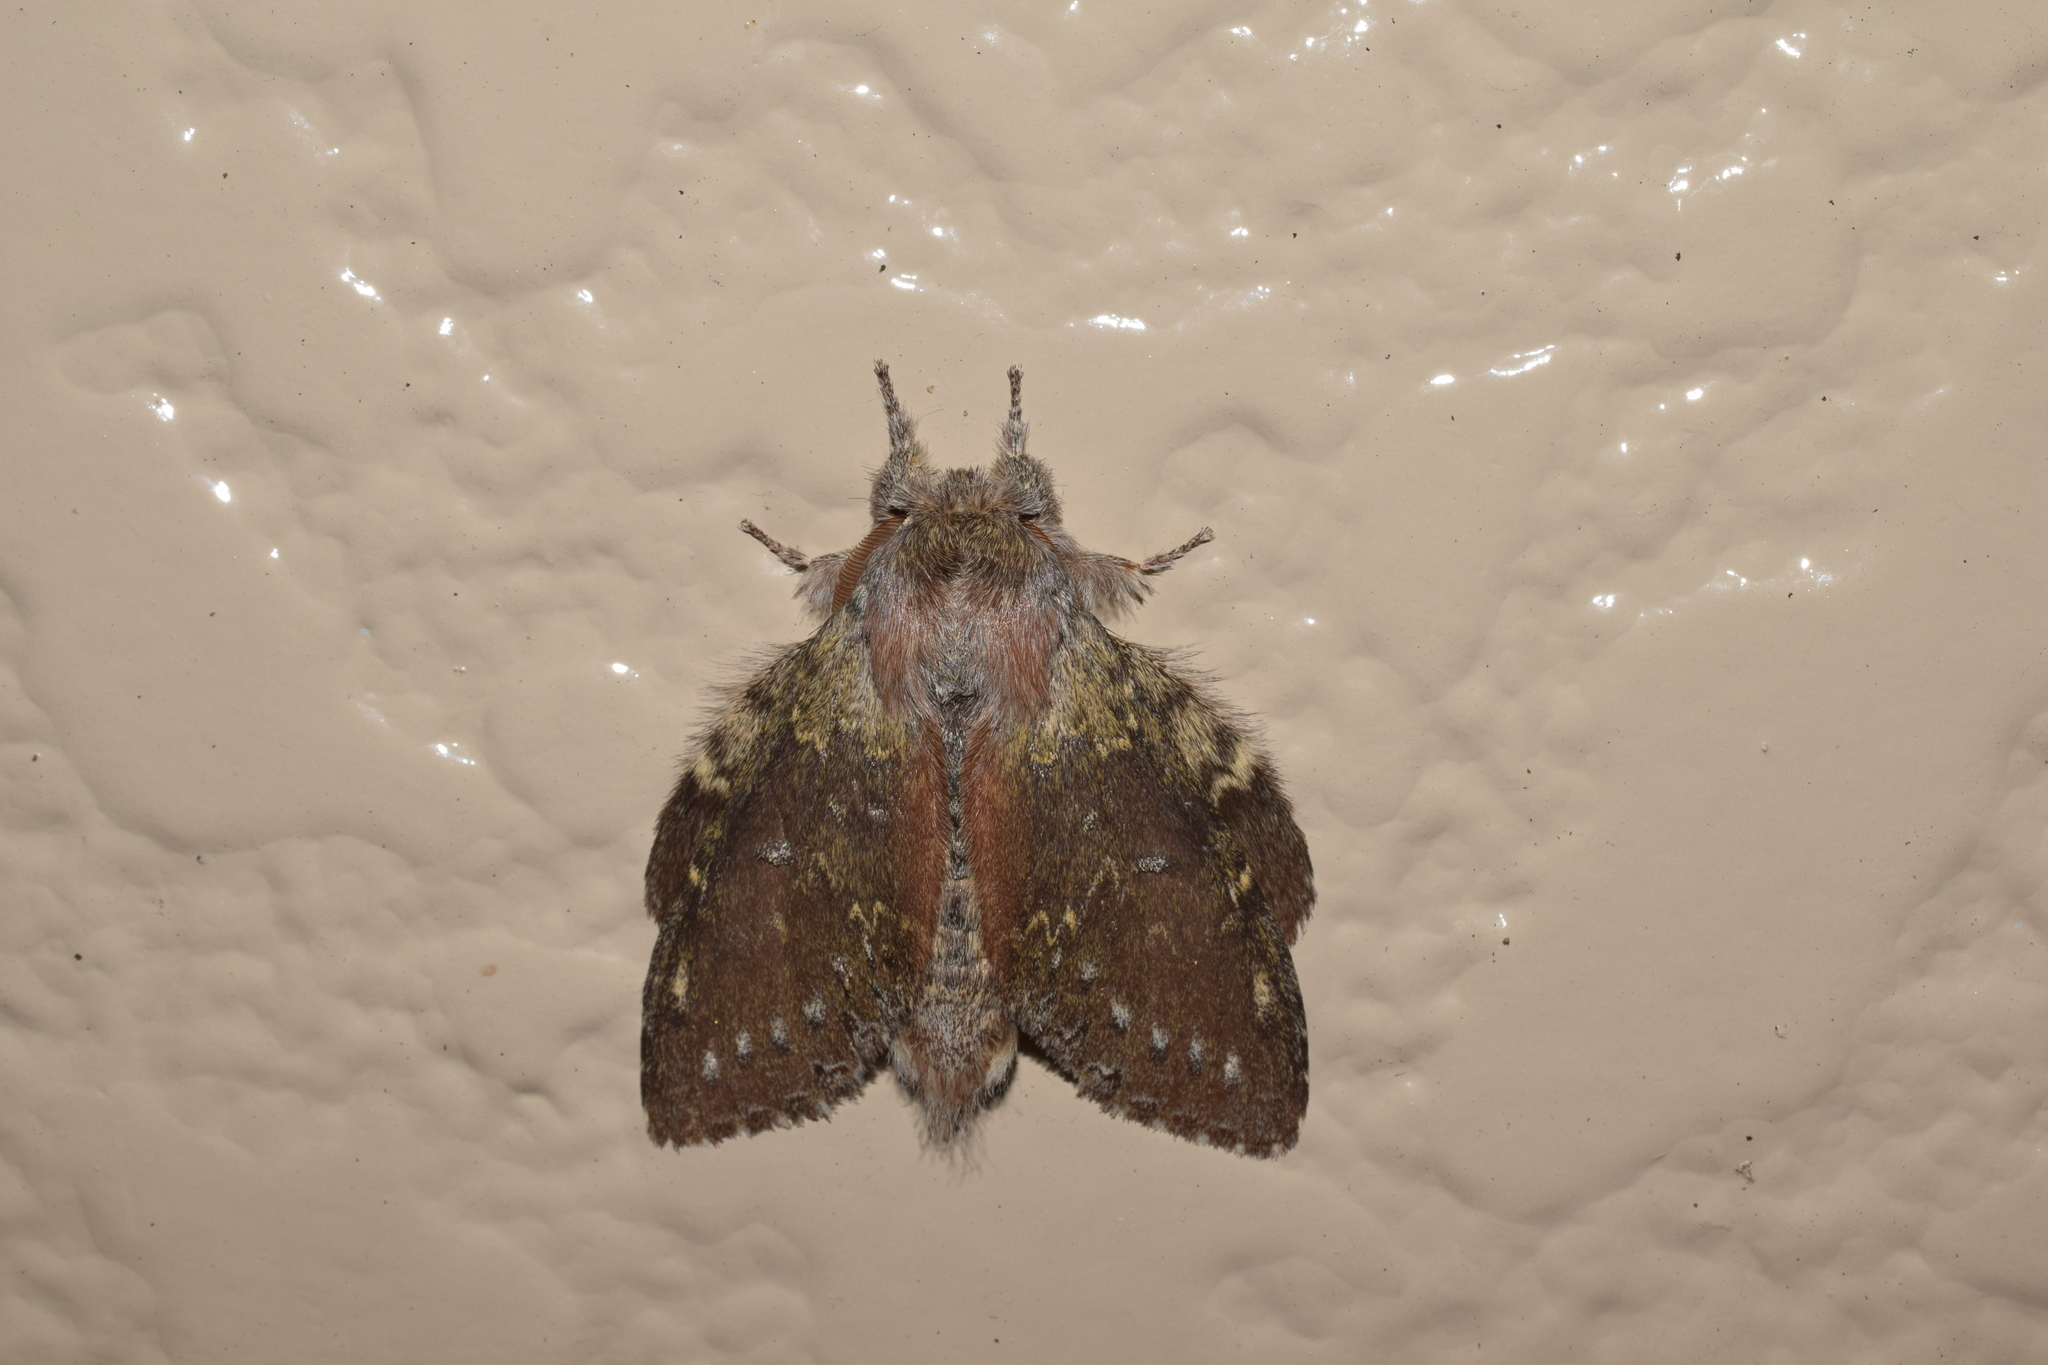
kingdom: Animalia
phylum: Arthropoda
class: Insecta
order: Lepidoptera
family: Notodontidae
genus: Stauropus
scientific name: Stauropus fagi
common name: Lobster moth
